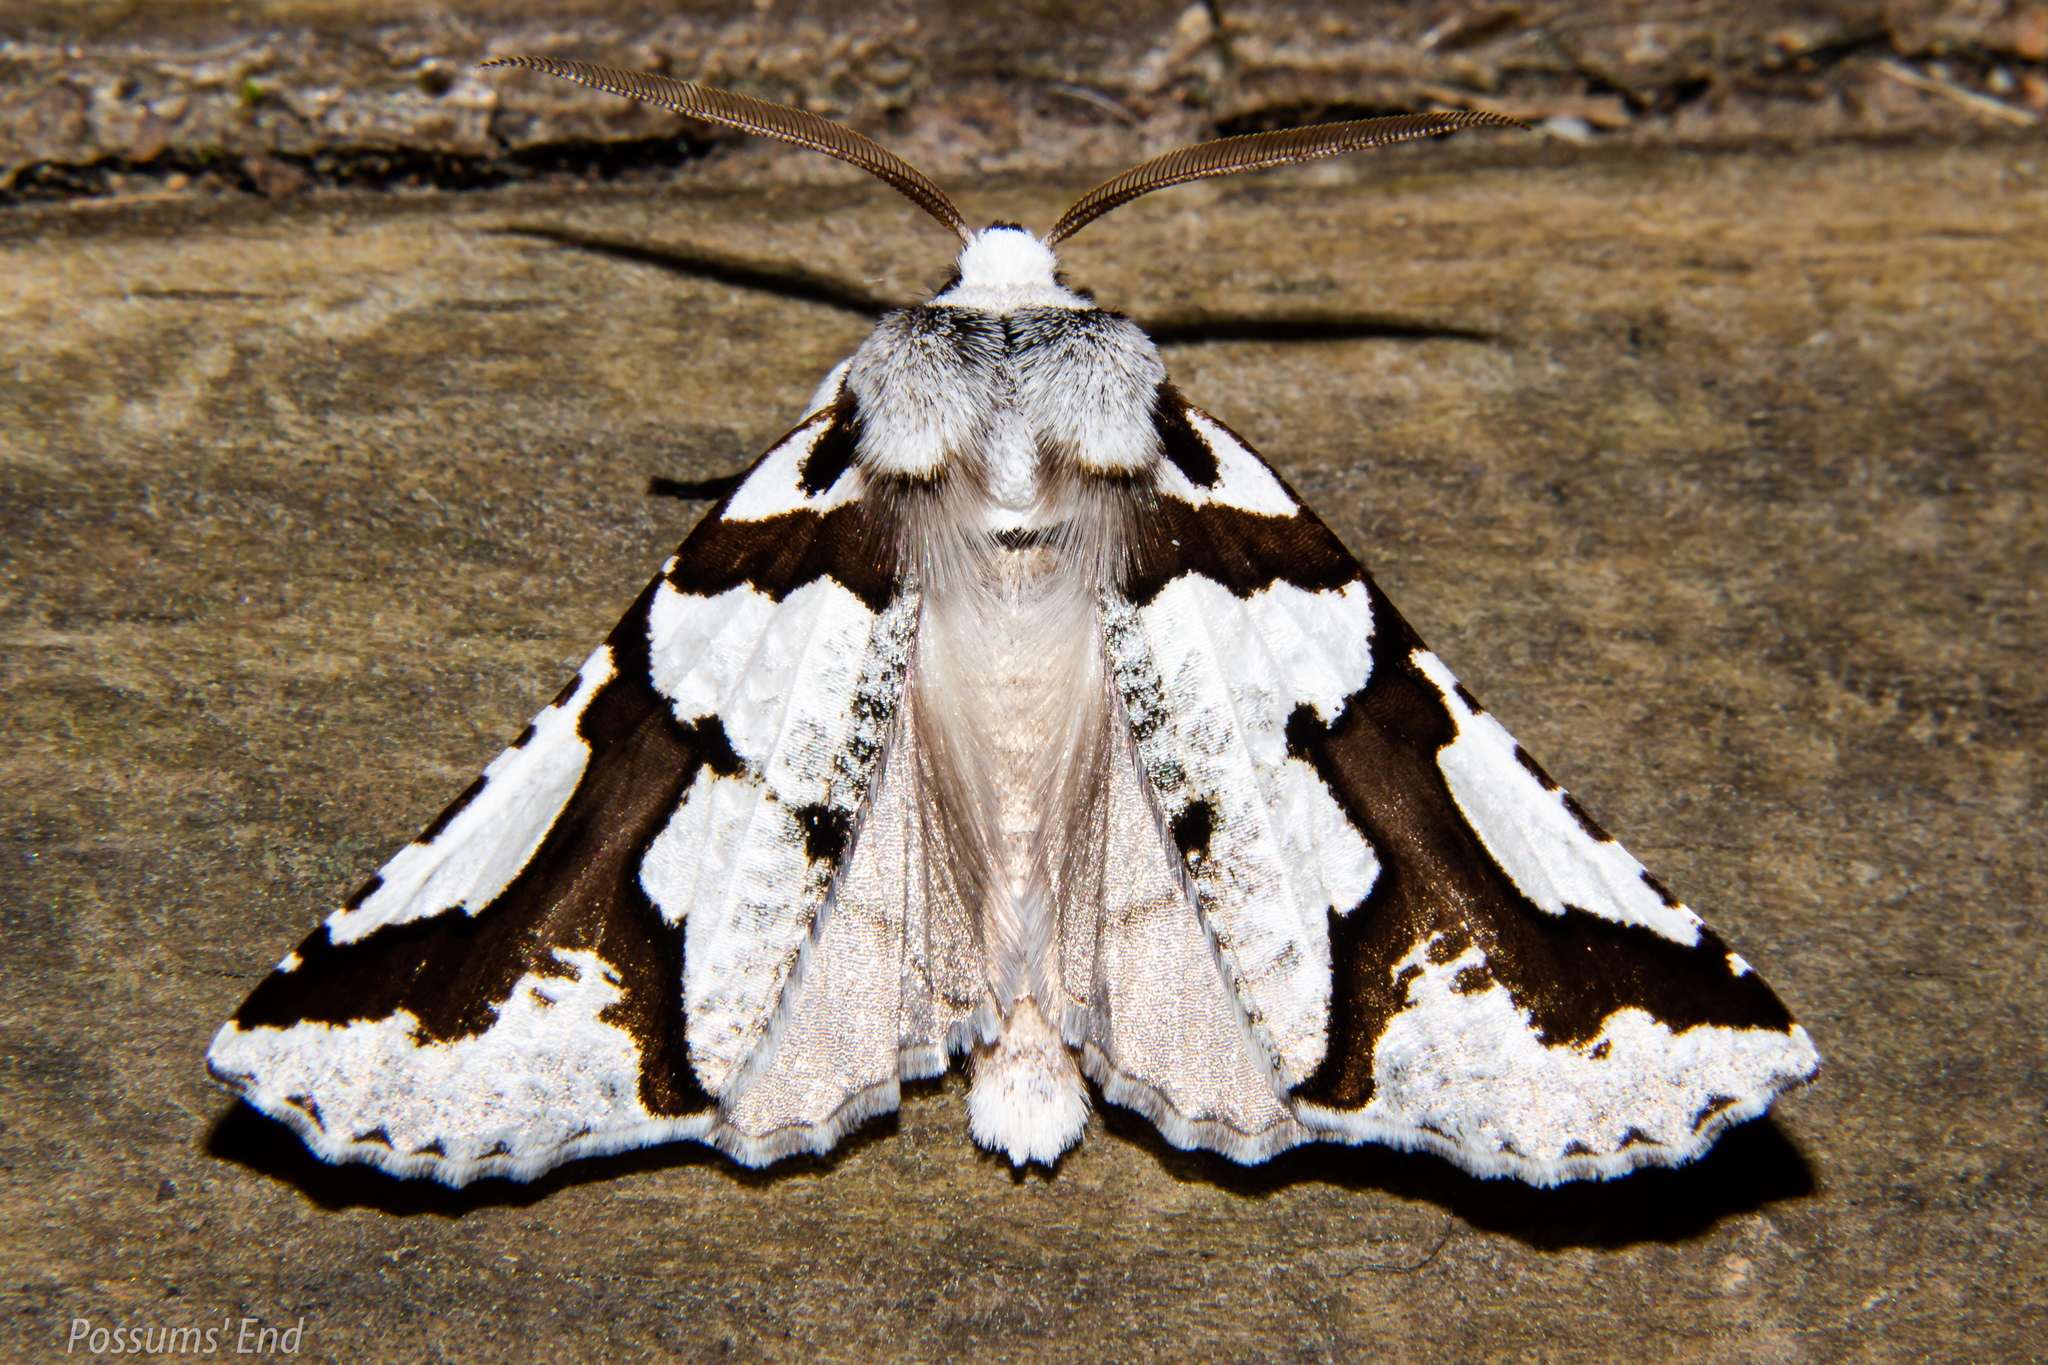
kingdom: Animalia
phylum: Arthropoda
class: Insecta
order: Lepidoptera
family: Geometridae
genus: Declana
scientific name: Declana
